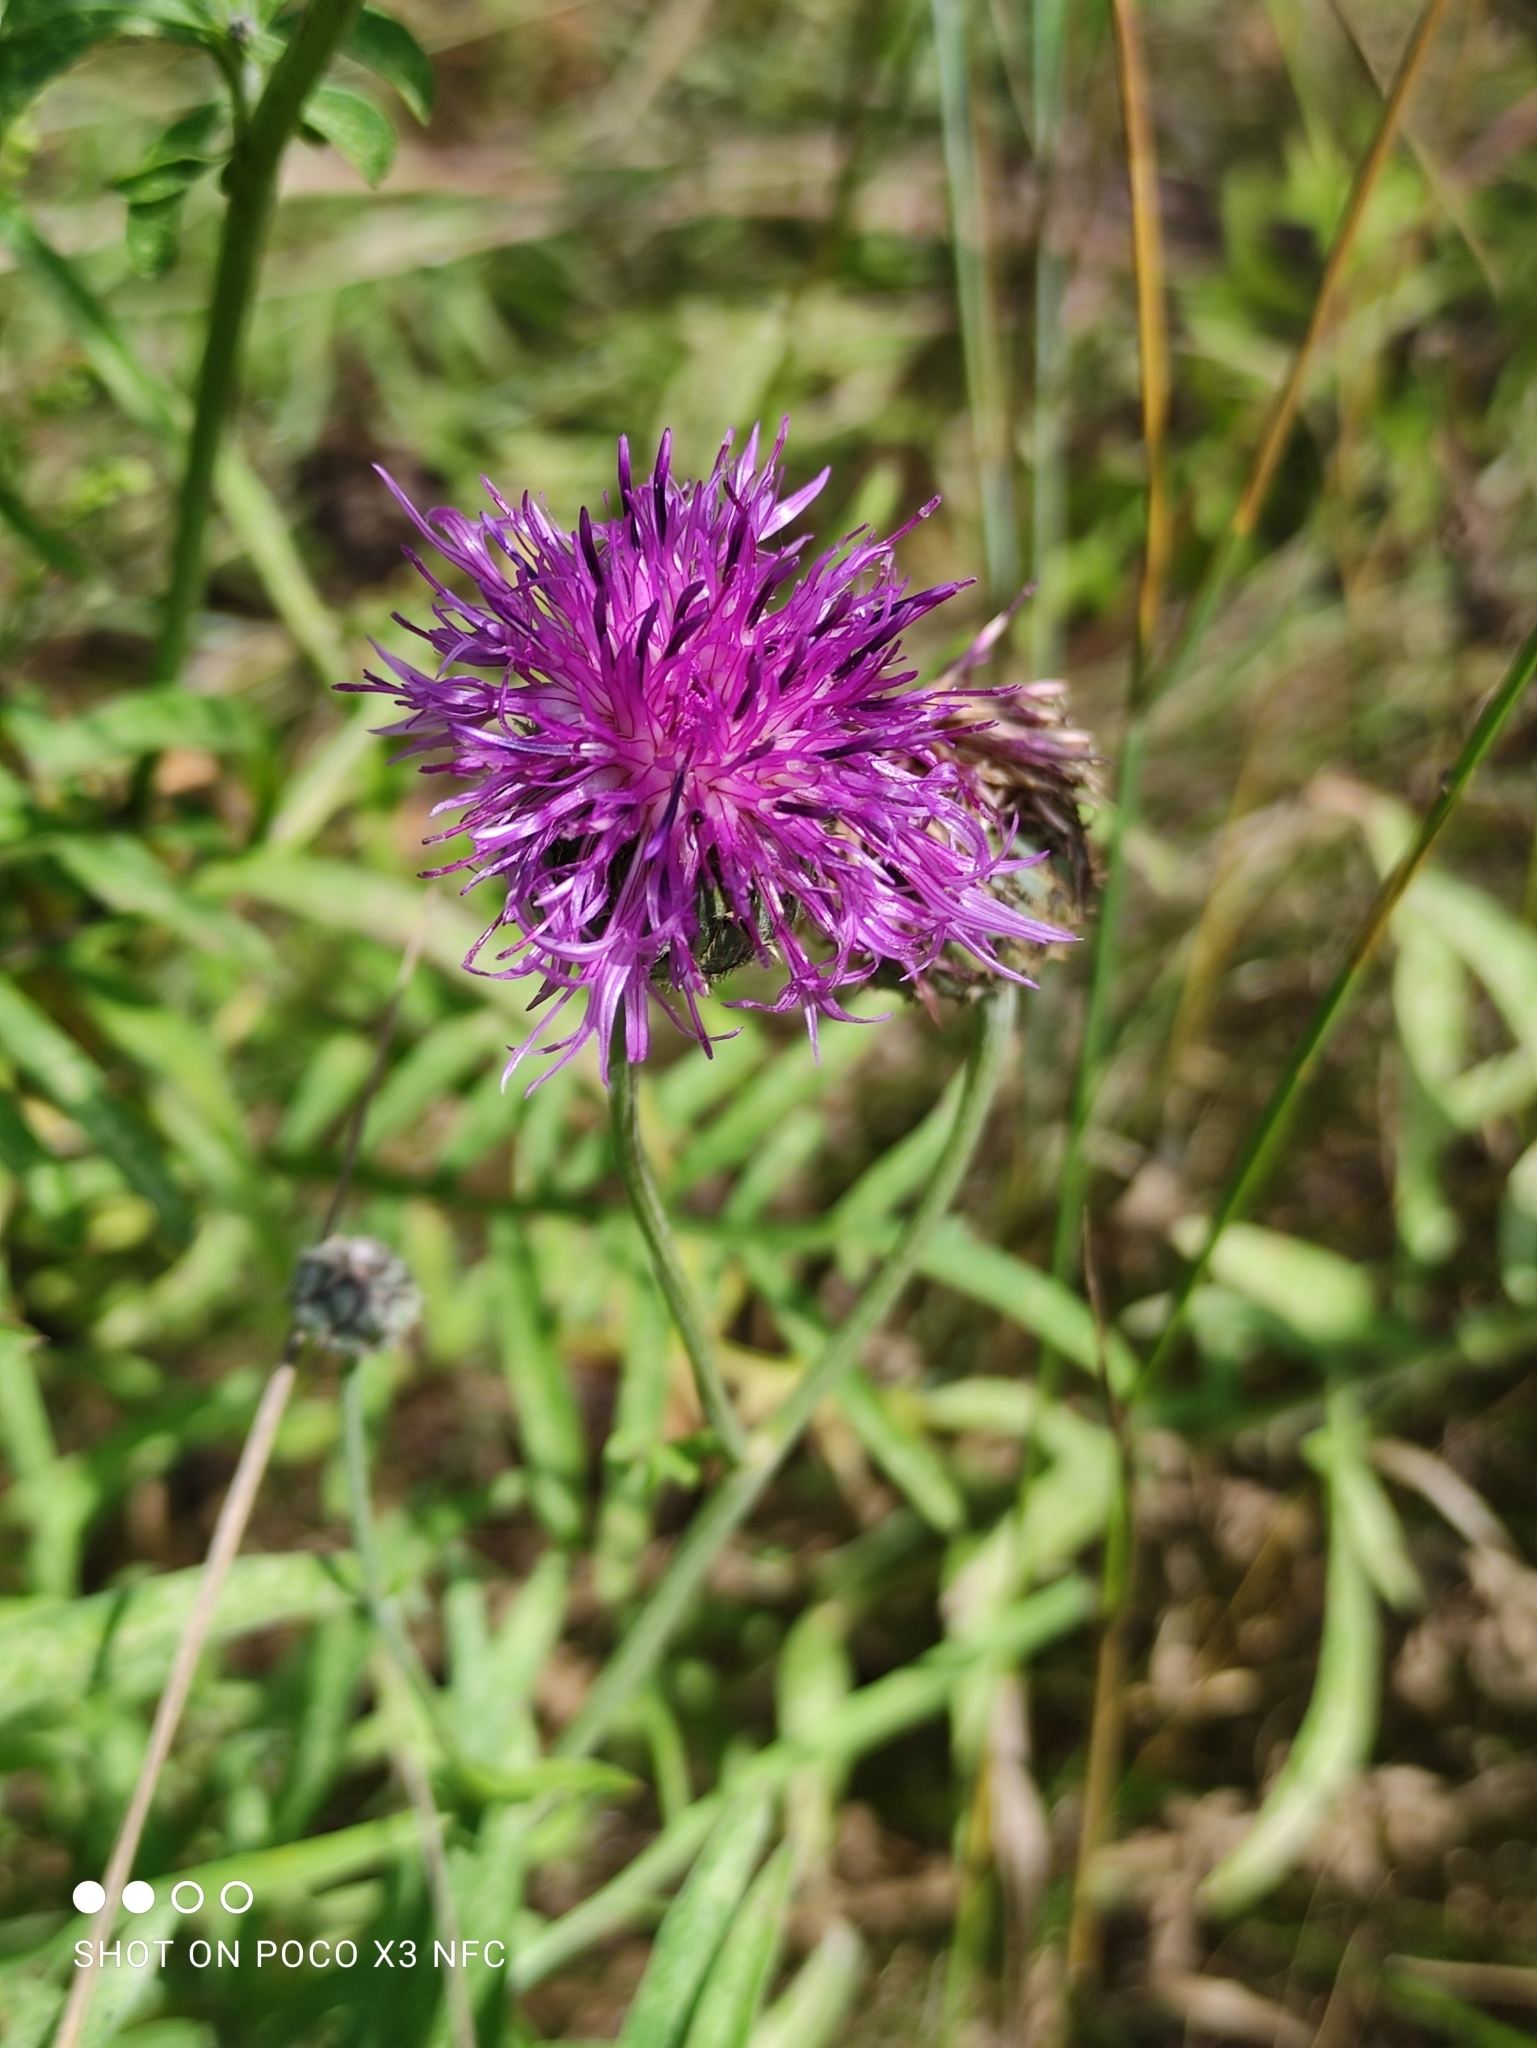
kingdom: Plantae
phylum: Tracheophyta
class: Magnoliopsida
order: Asterales
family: Asteraceae
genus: Centaurea
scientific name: Centaurea scabiosa
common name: Greater knapweed
